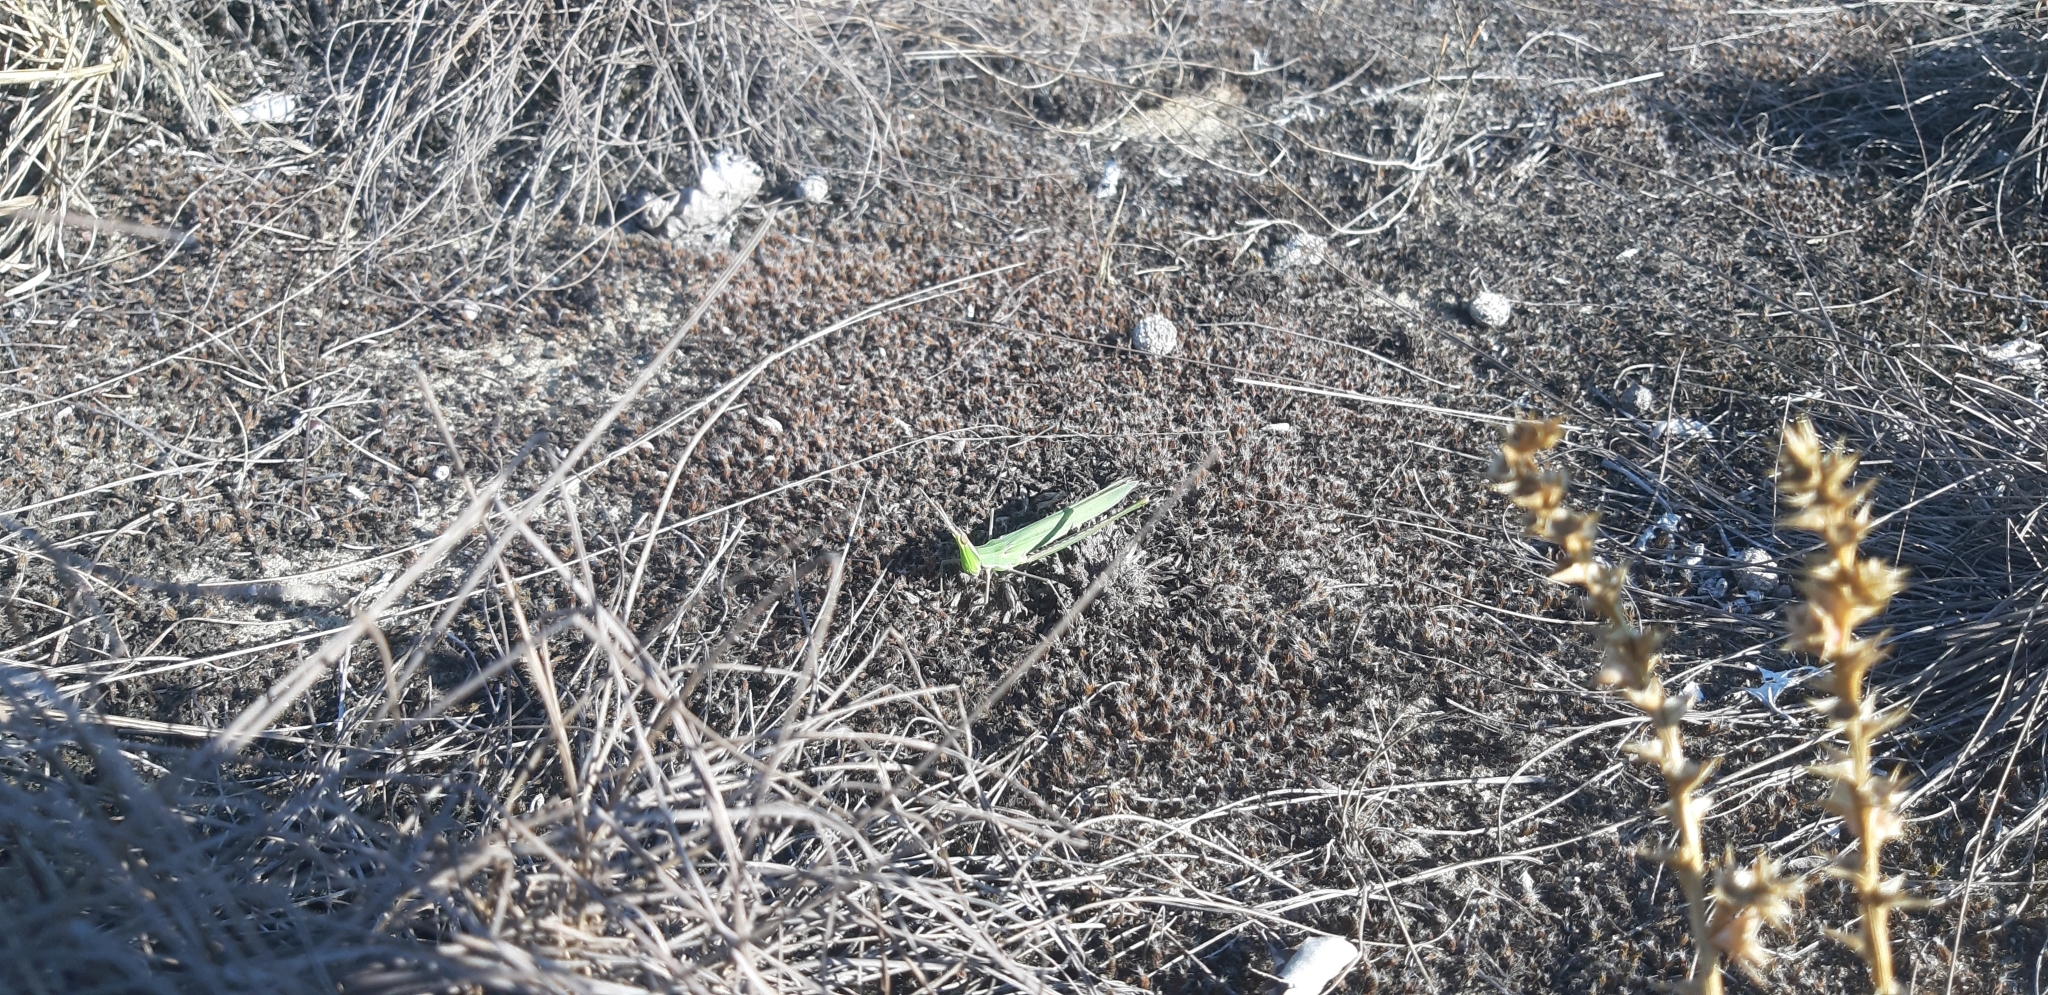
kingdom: Animalia
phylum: Arthropoda
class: Insecta
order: Orthoptera
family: Acrididae
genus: Acrida
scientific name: Acrida ungarica
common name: Common cone-headed grasshopper
